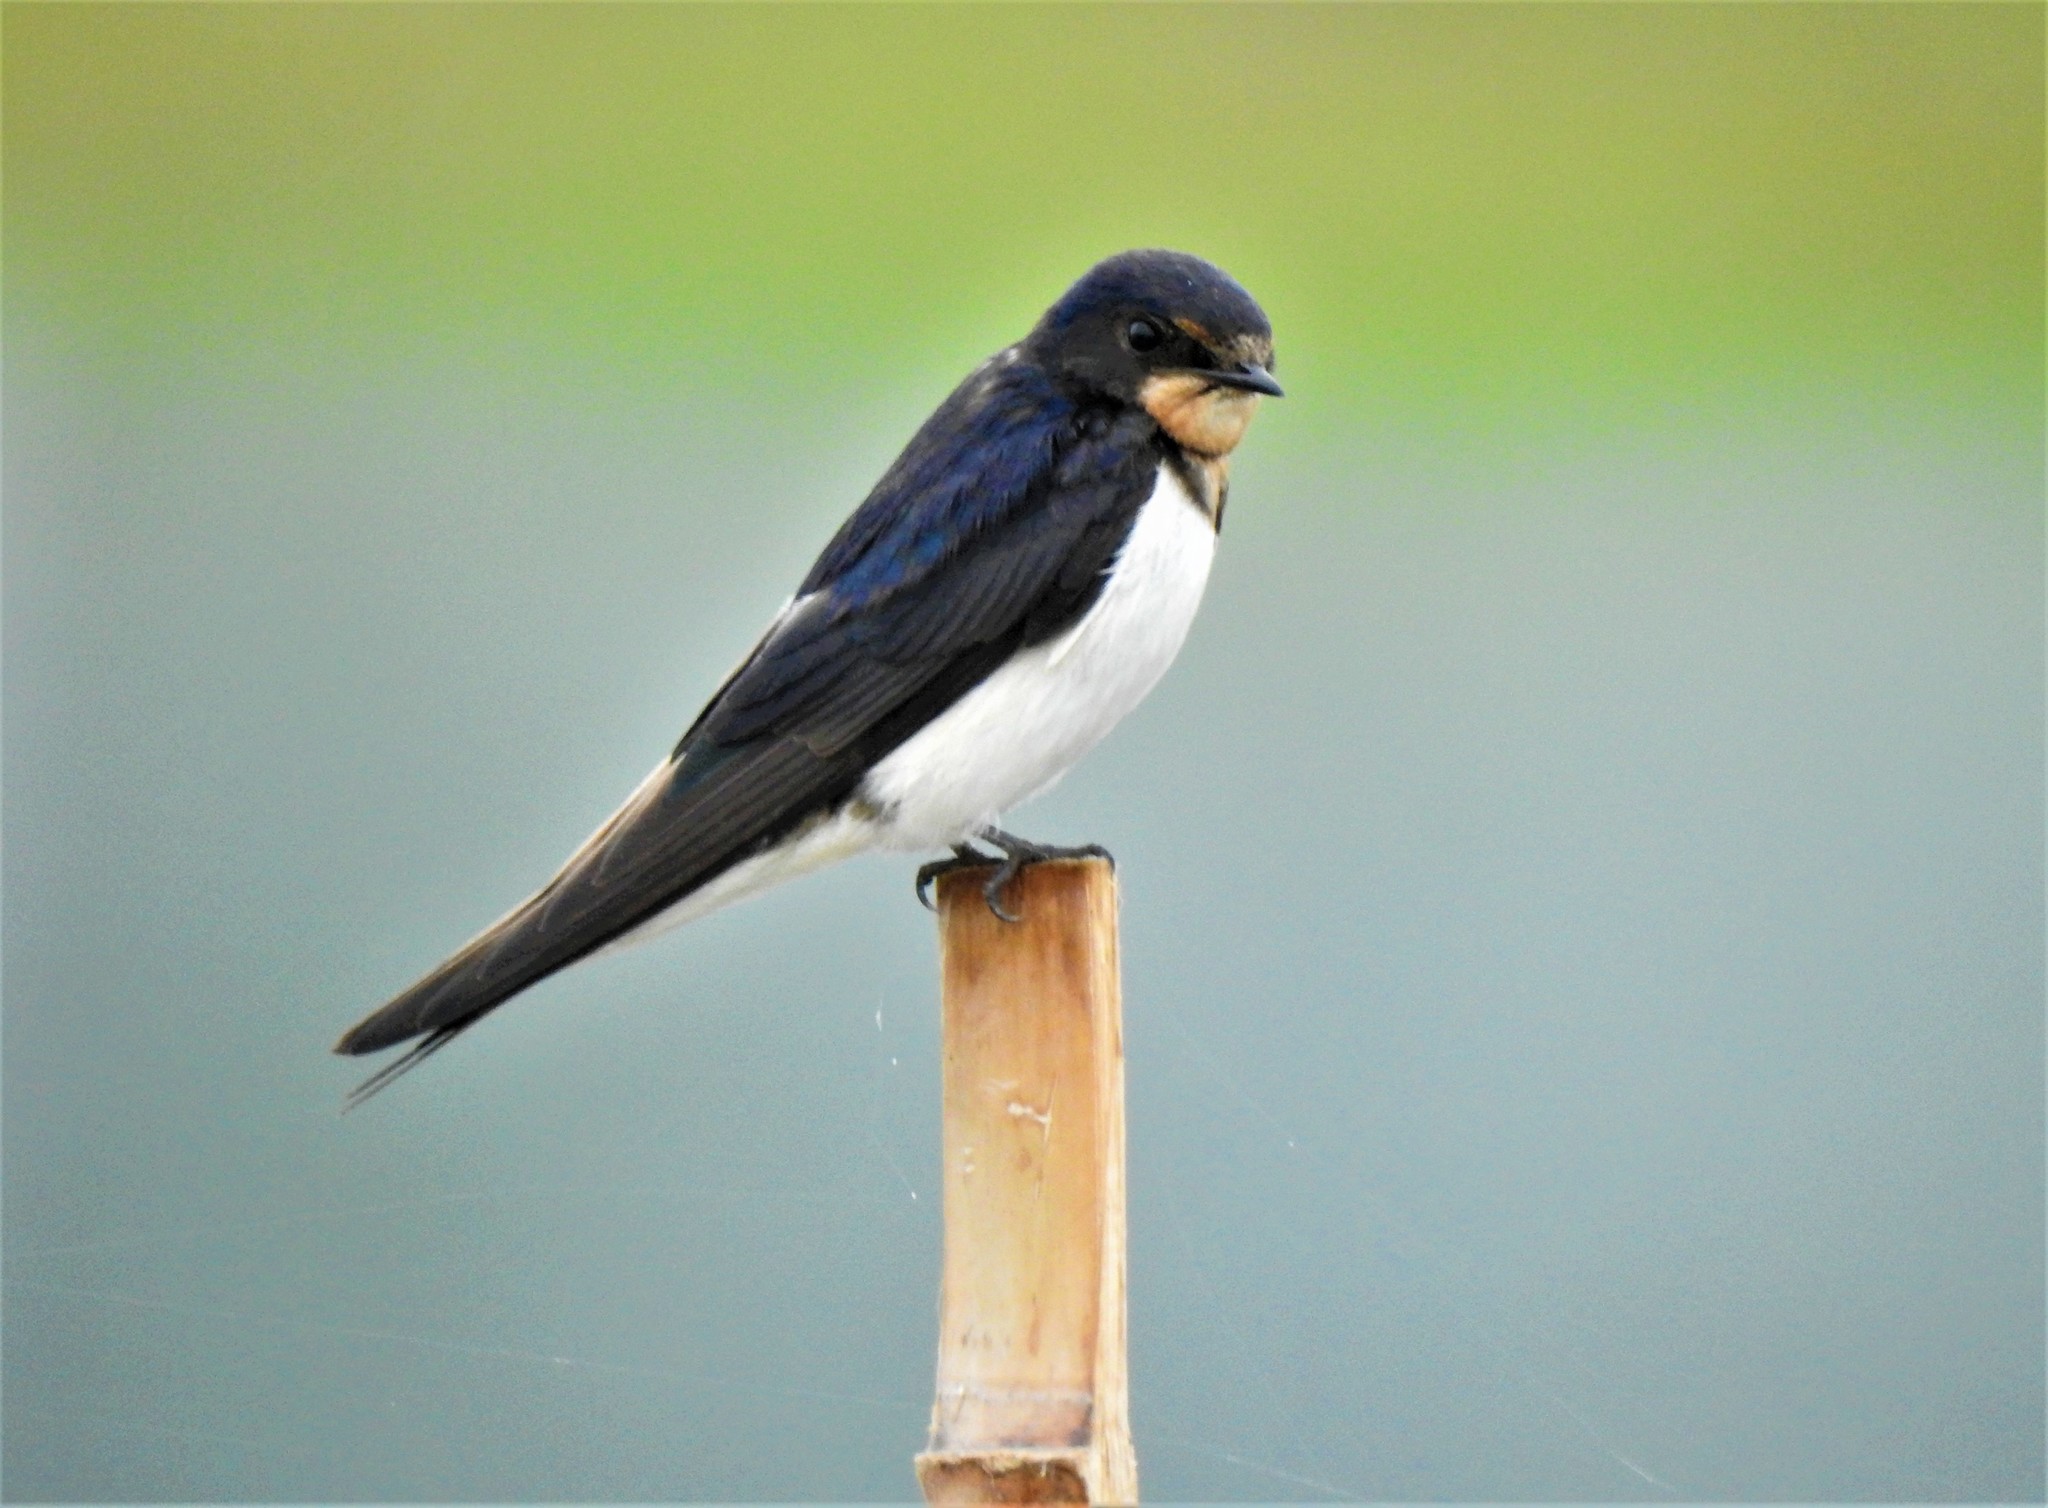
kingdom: Animalia
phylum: Chordata
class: Aves
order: Passeriformes
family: Hirundinidae
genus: Hirundo
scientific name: Hirundo rustica
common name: Barn swallow
